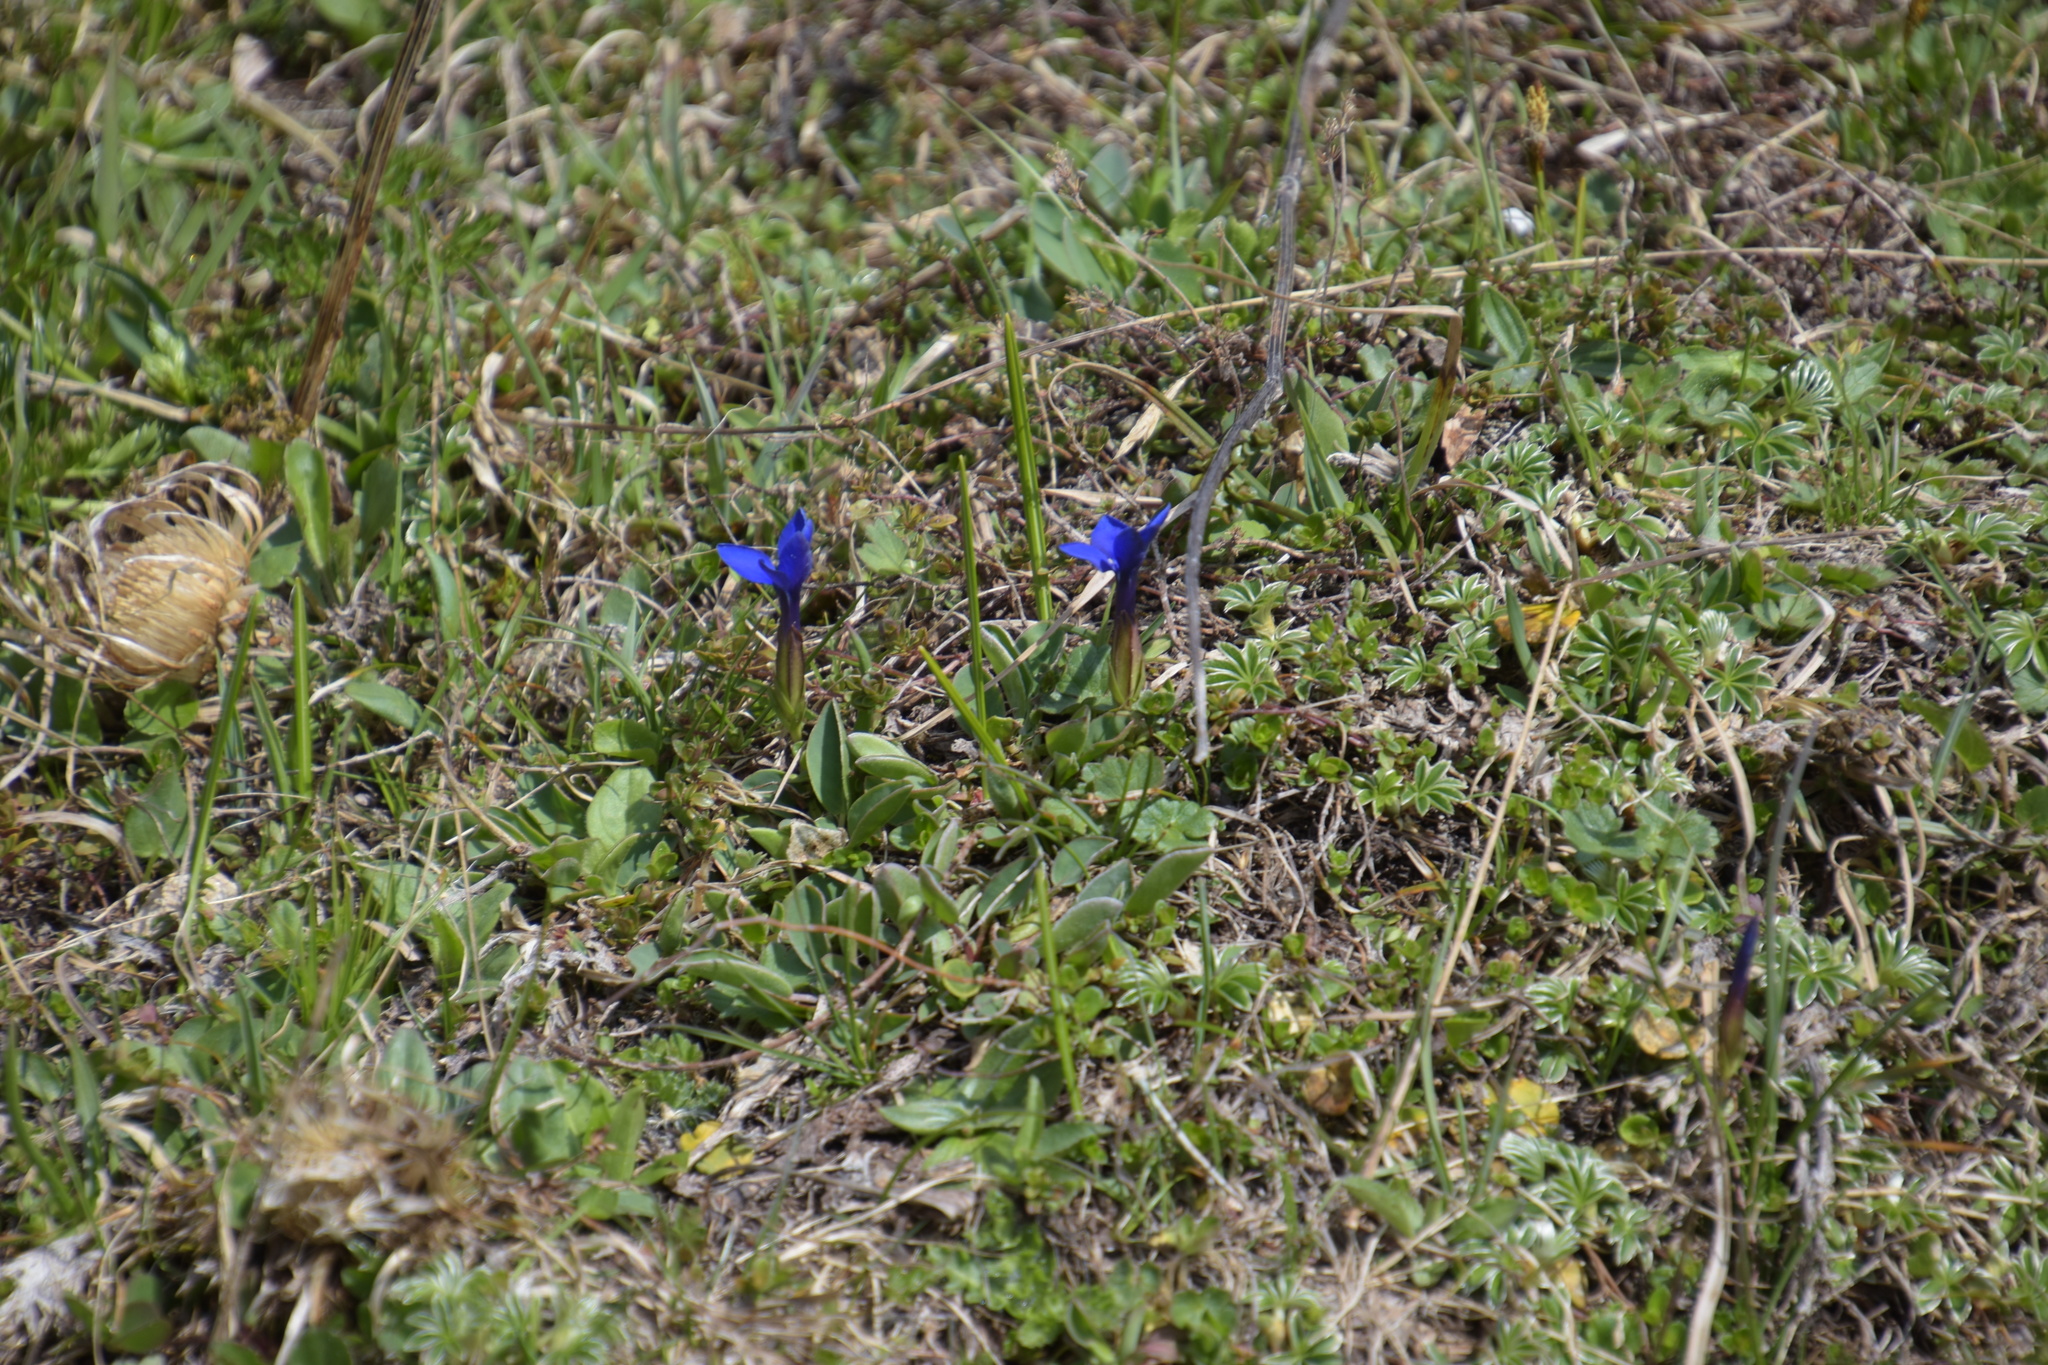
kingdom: Plantae
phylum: Tracheophyta
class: Magnoliopsida
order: Gentianales
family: Gentianaceae
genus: Gentiana
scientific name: Gentiana verna
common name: Spring gentian
